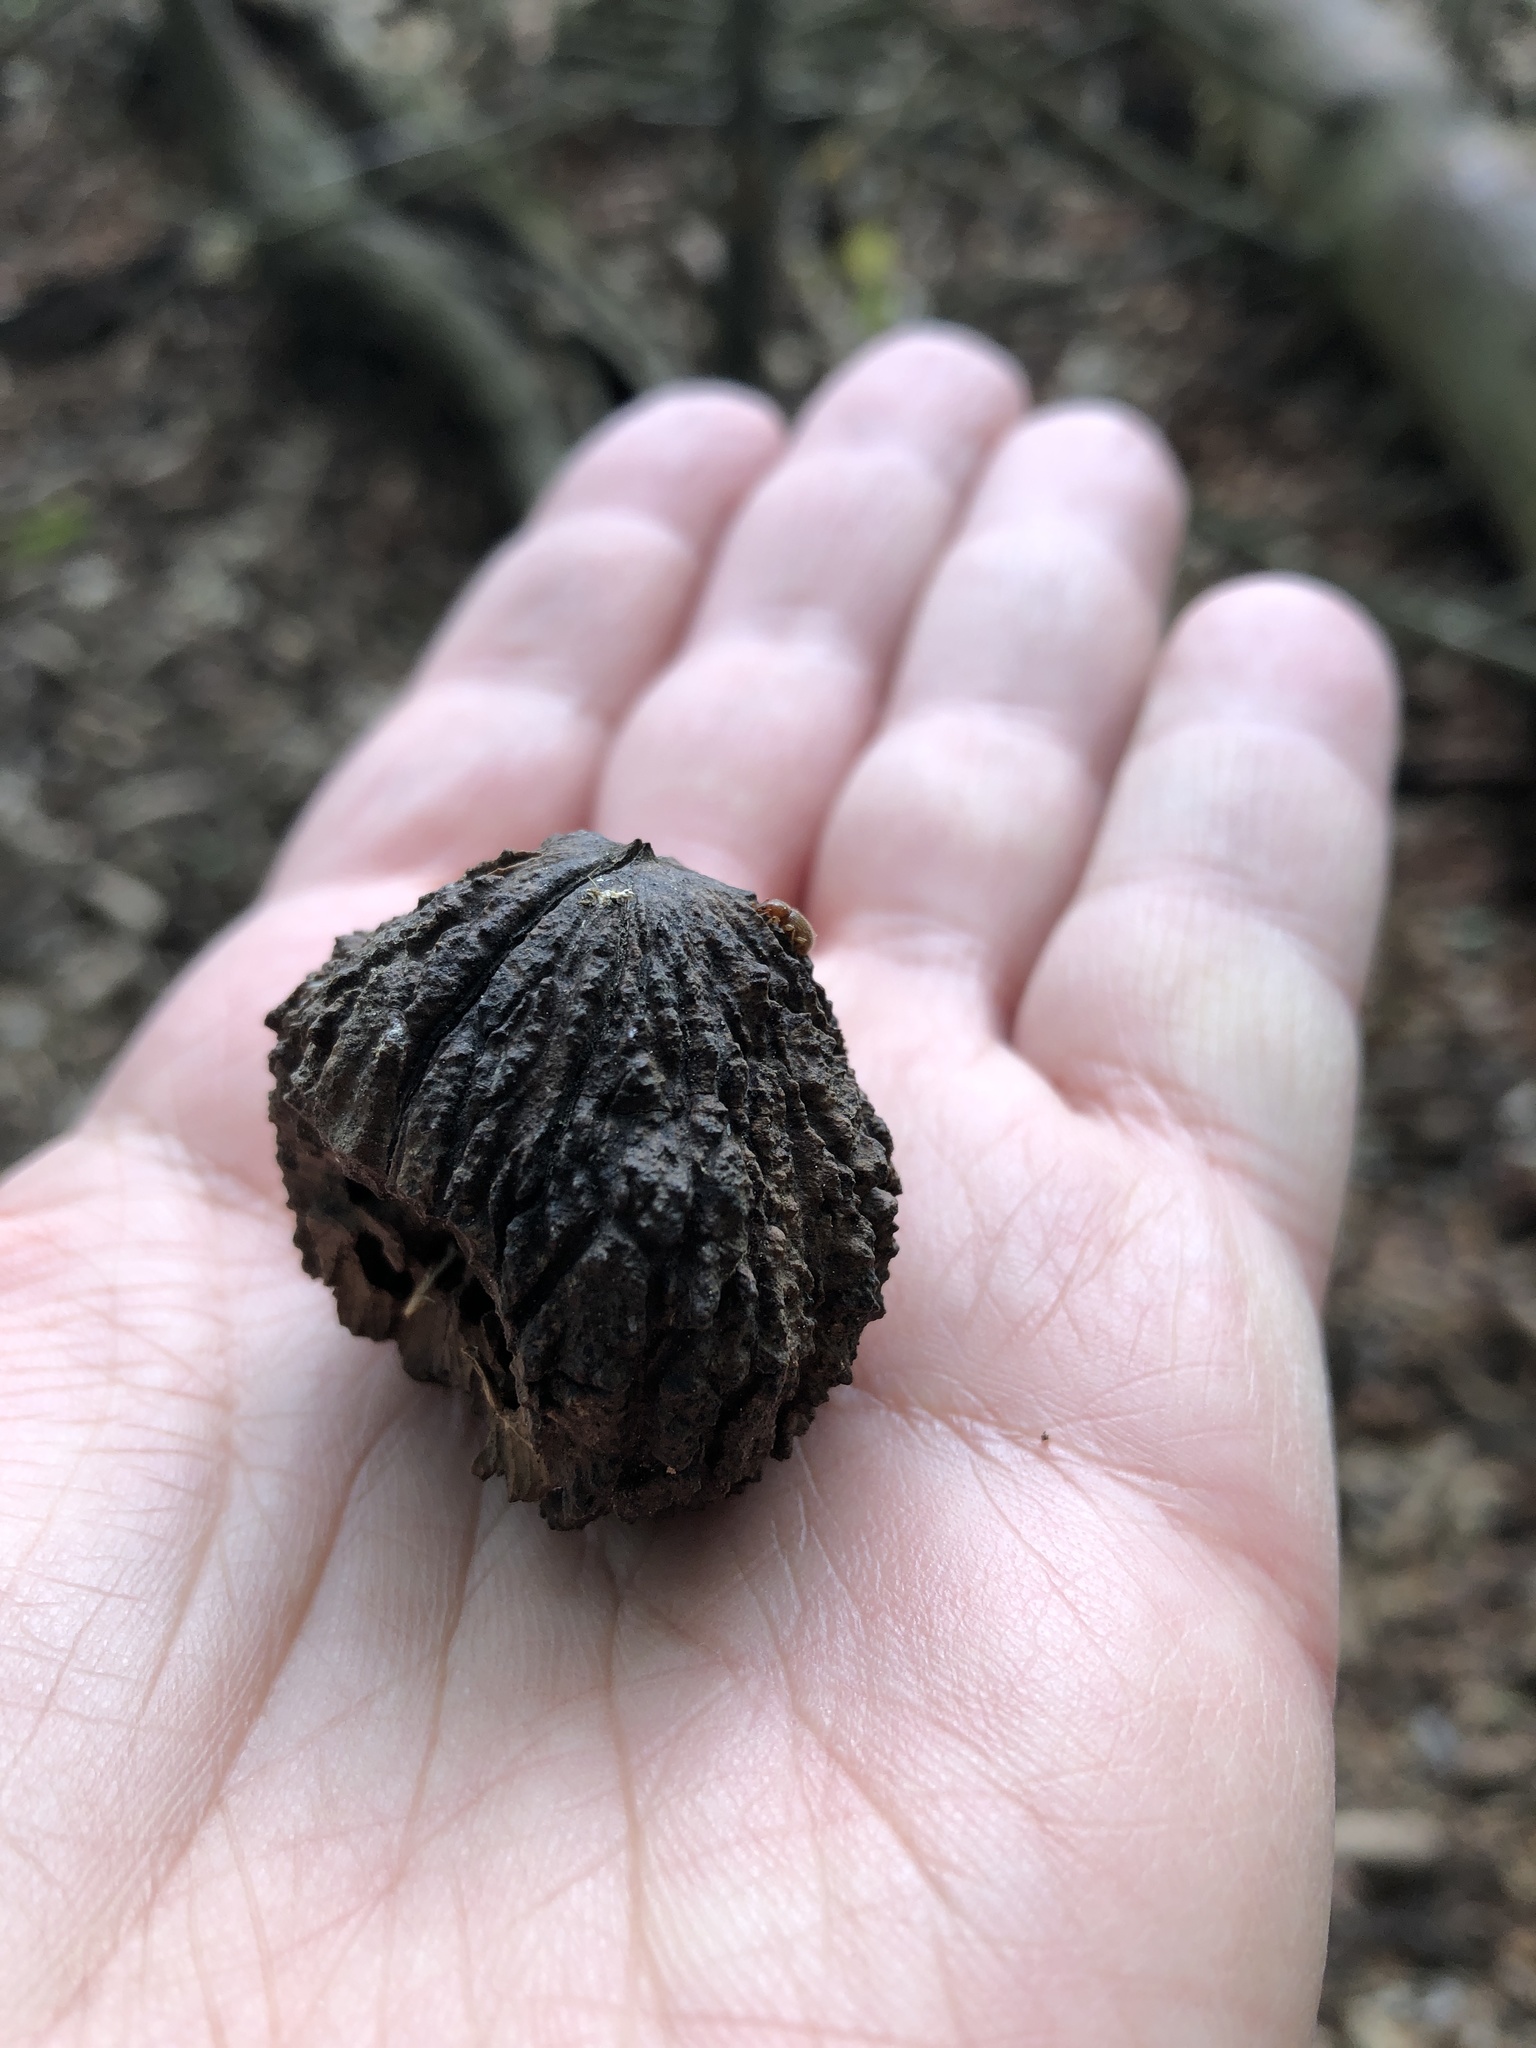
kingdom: Plantae
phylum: Tracheophyta
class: Magnoliopsida
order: Fagales
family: Juglandaceae
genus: Juglans
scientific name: Juglans nigra
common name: Black walnut
